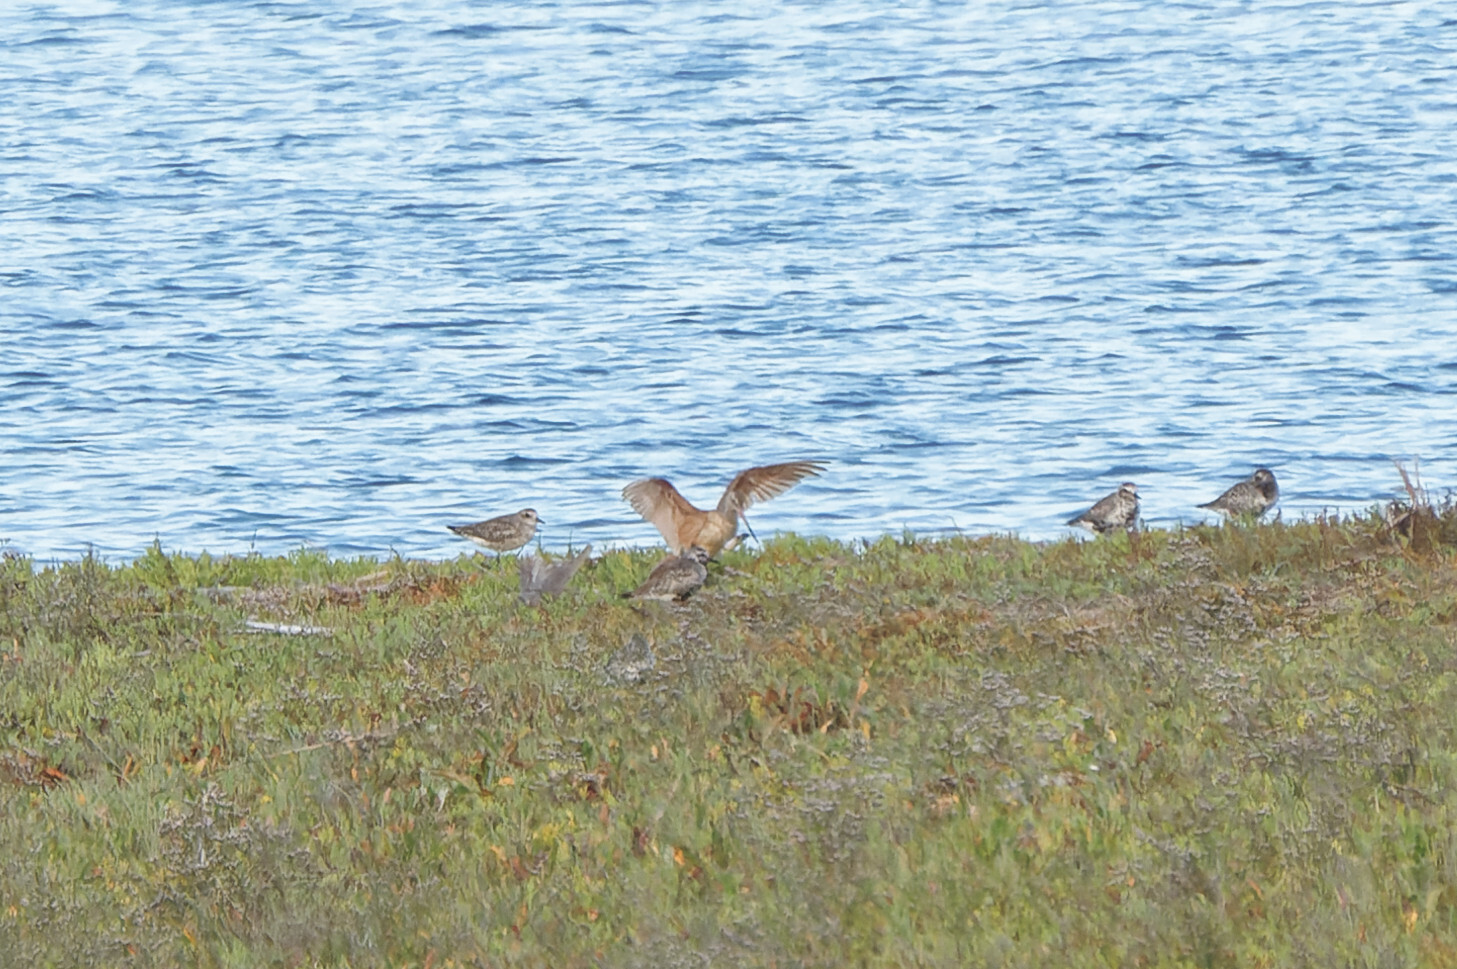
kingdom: Animalia
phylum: Chordata
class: Aves
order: Charadriiformes
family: Scolopacidae
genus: Limosa
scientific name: Limosa fedoa
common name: Marbled godwit
